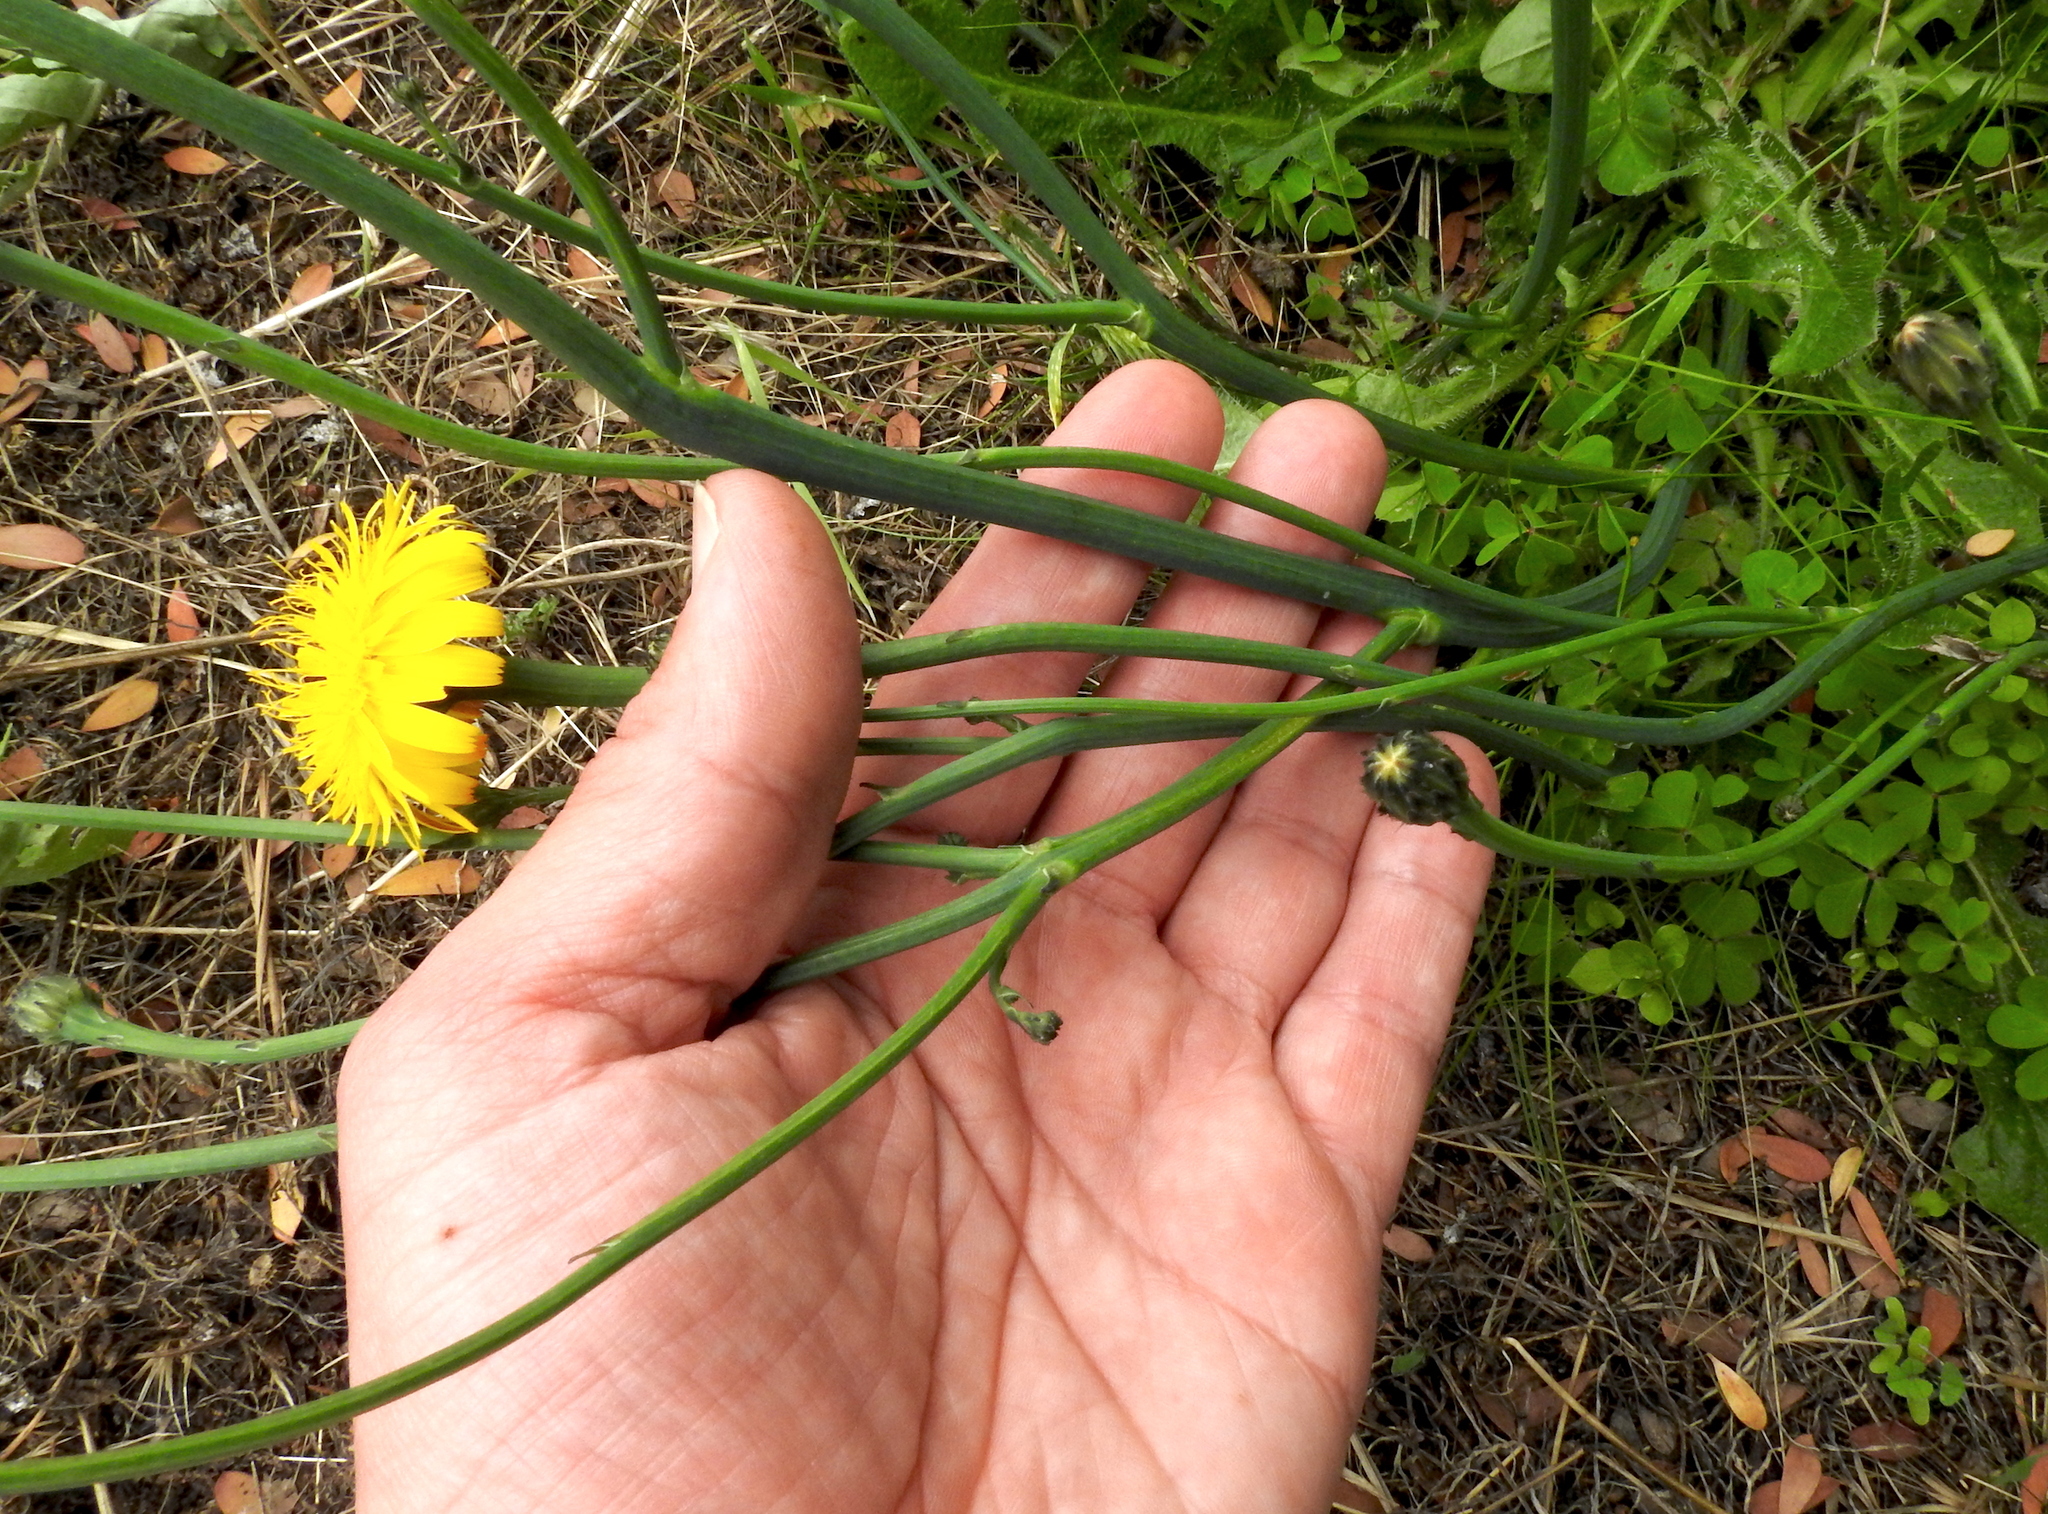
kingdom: Plantae
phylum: Tracheophyta
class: Magnoliopsida
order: Asterales
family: Asteraceae
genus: Hypochaeris
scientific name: Hypochaeris radicata
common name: Flatweed
